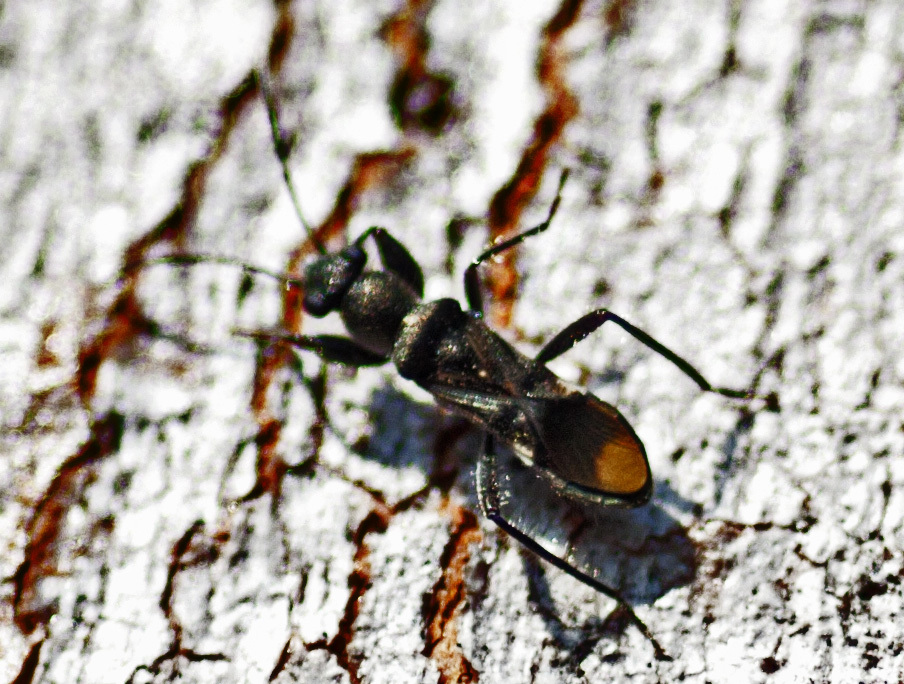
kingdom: Animalia
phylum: Arthropoda
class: Insecta
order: Hemiptera
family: Rhyparochromidae
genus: Daerlac
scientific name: Daerlac apicalis
